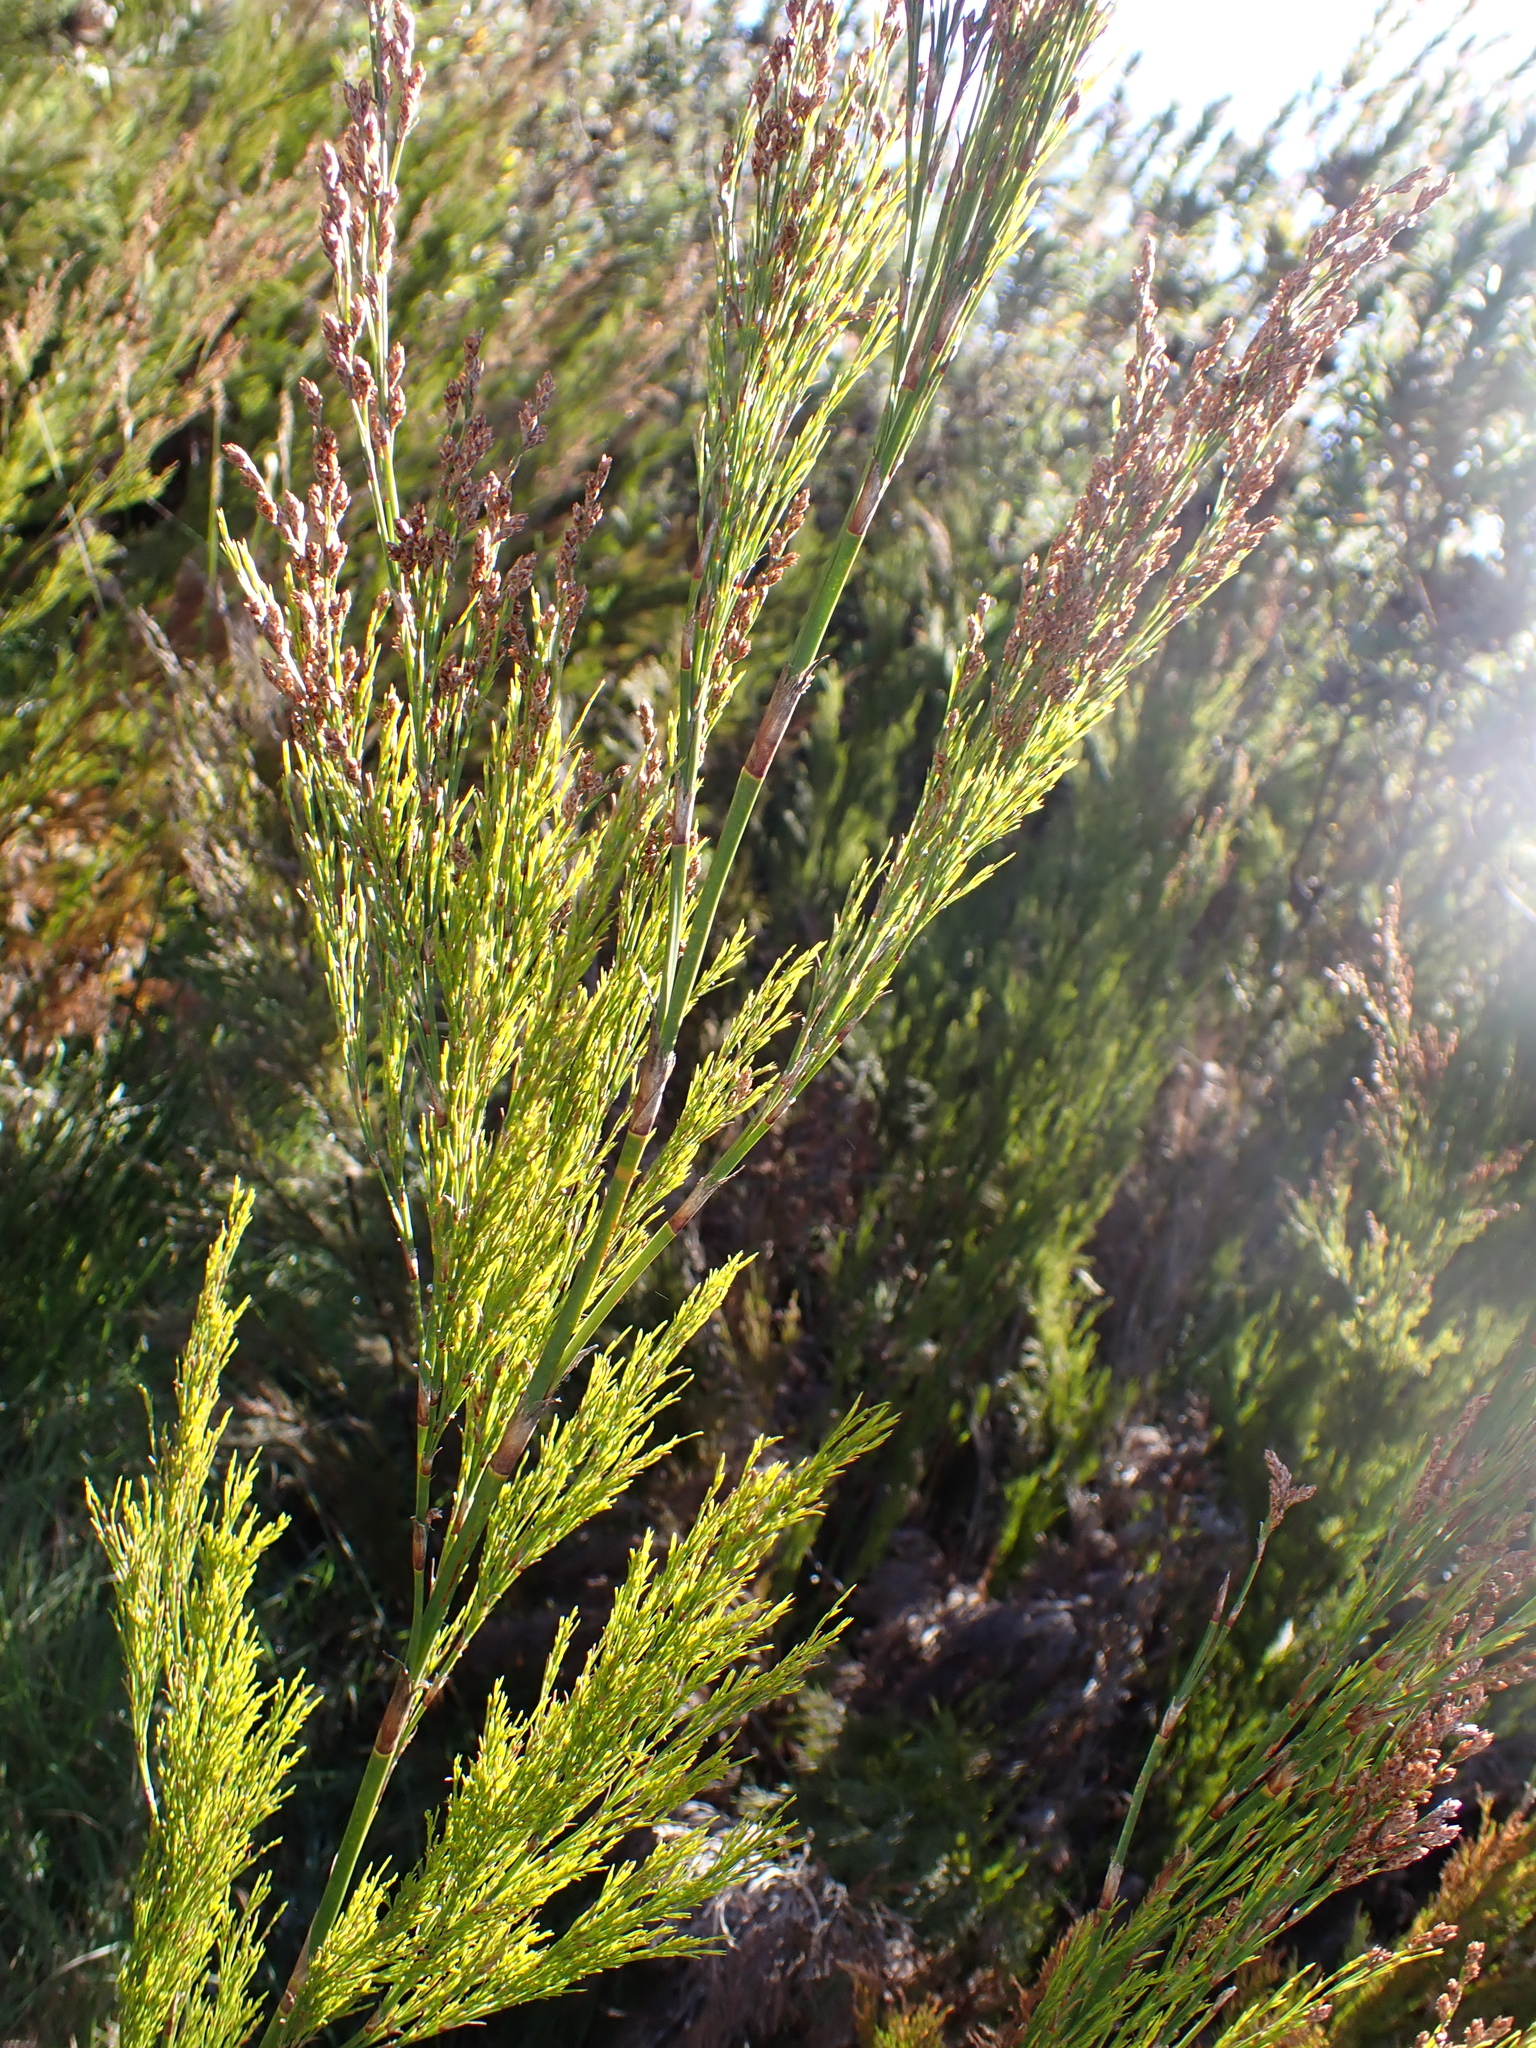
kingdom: Plantae
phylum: Tracheophyta
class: Liliopsida
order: Poales
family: Restionaceae
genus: Restio
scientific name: Restio paniculatus
